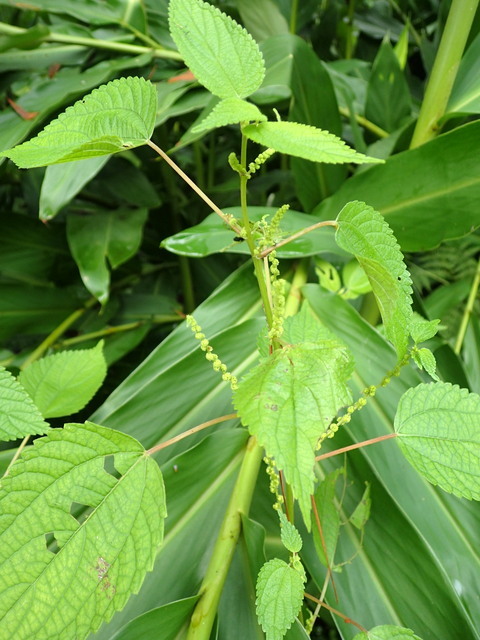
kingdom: Plantae
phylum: Tracheophyta
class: Magnoliopsida
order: Rosales
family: Urticaceae
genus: Boehmeria
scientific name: Boehmeria cylindrica
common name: Bog-hemp
